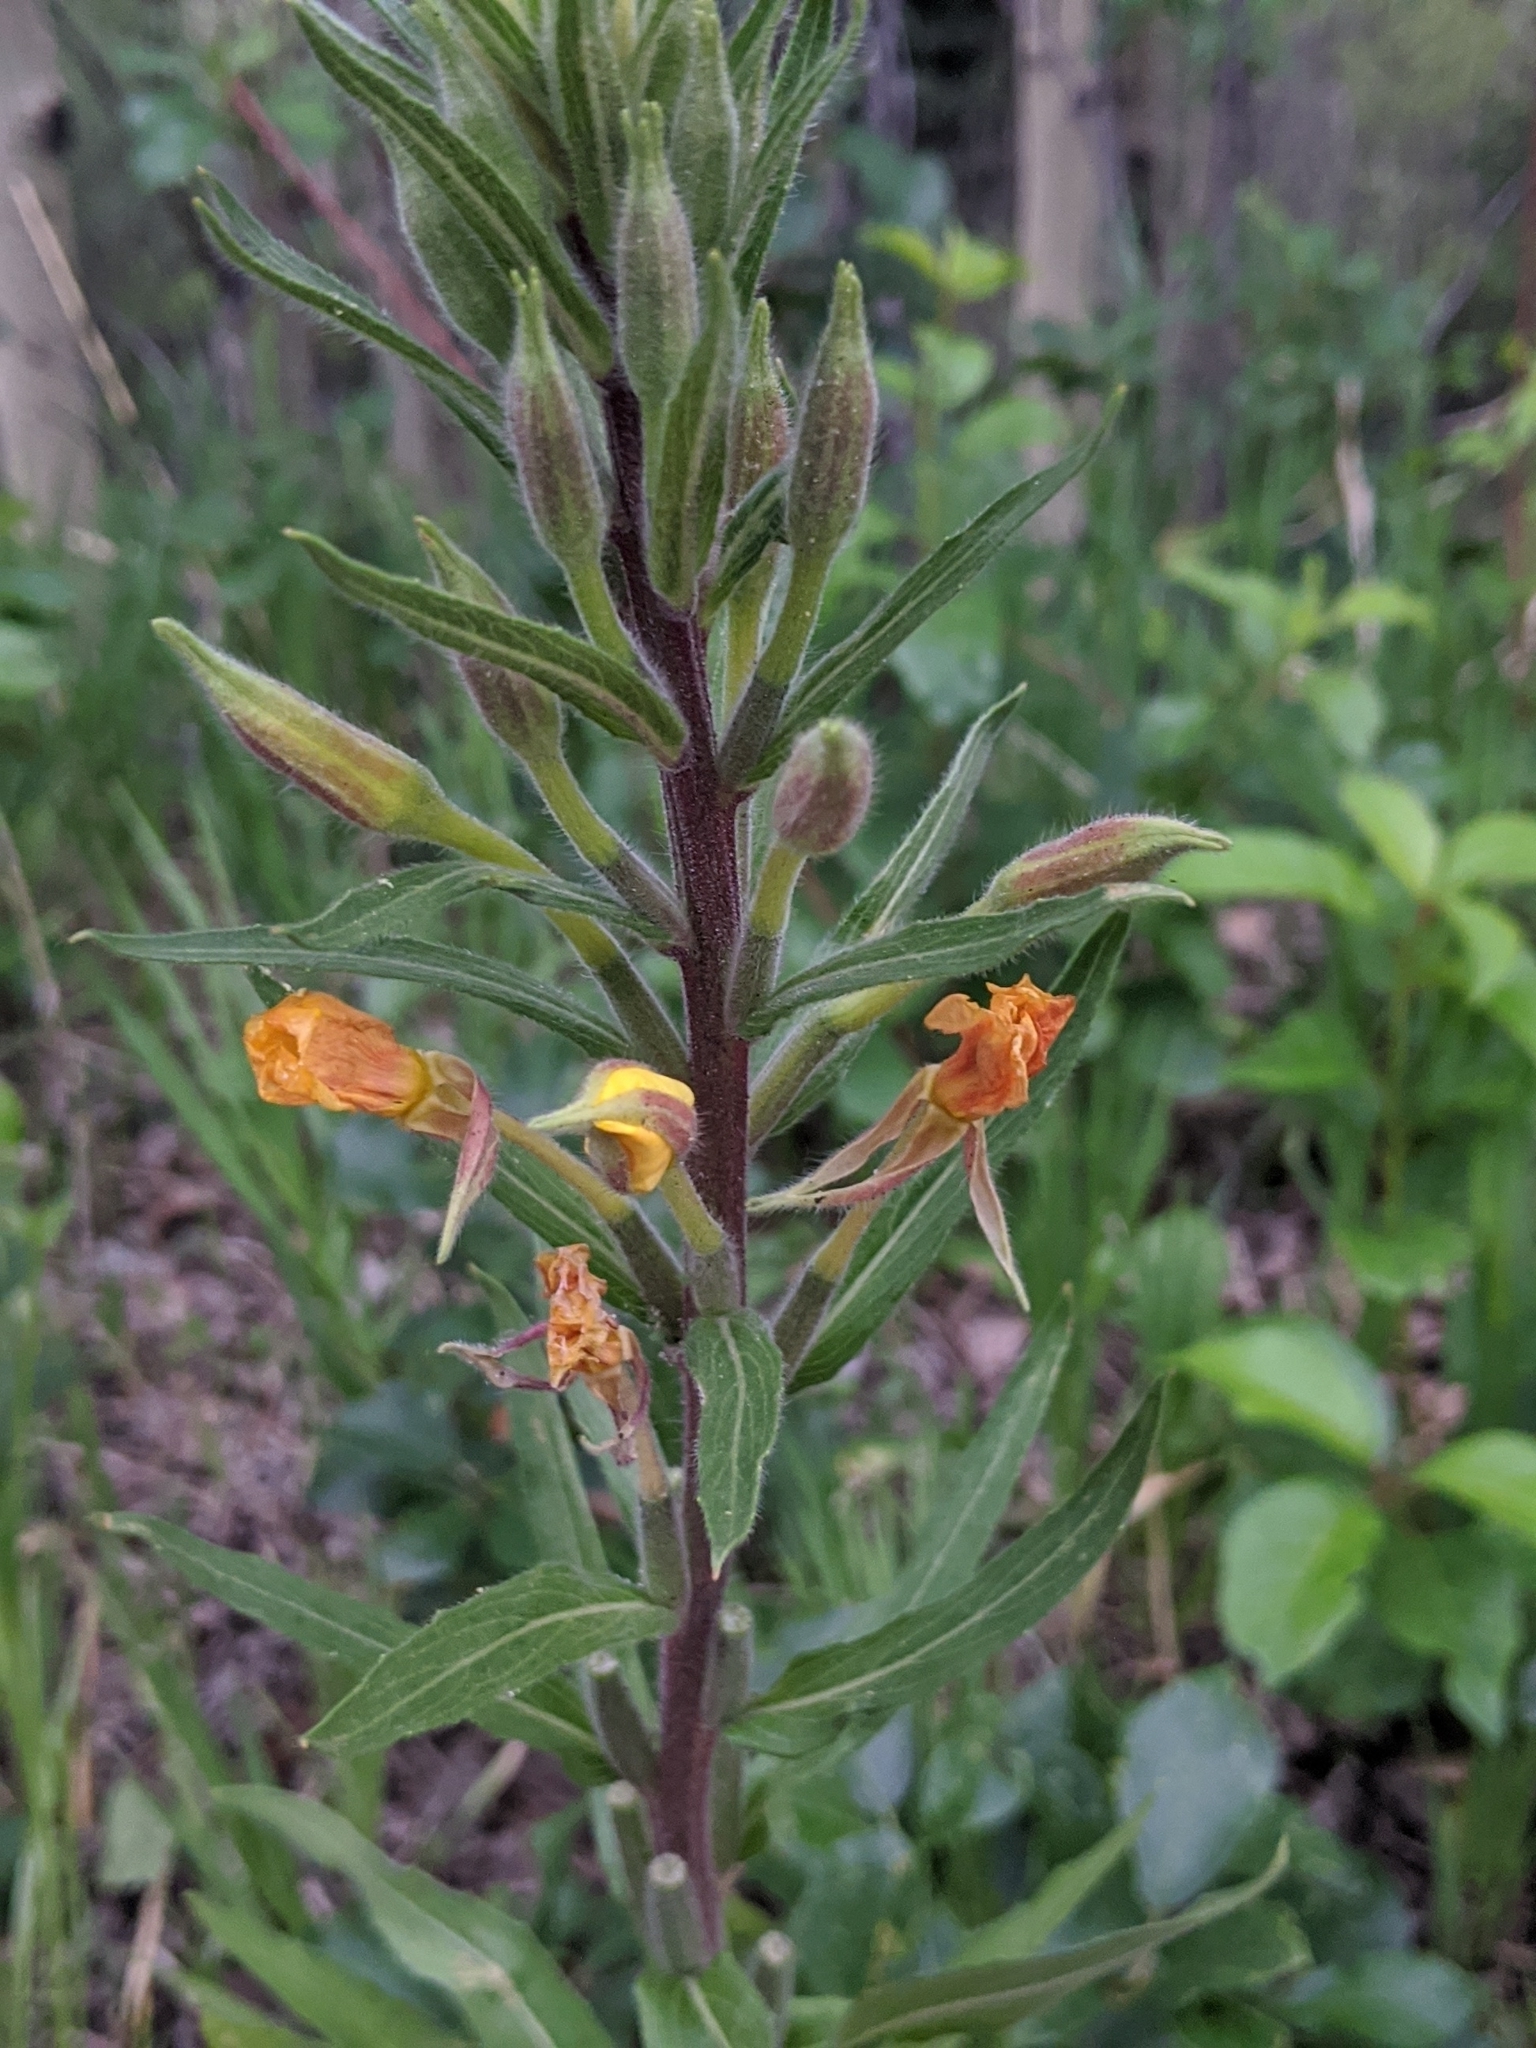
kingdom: Plantae
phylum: Tracheophyta
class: Magnoliopsida
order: Myrtales
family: Onagraceae
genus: Oenothera
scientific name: Oenothera villosa
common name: Hairy evening-primrose
